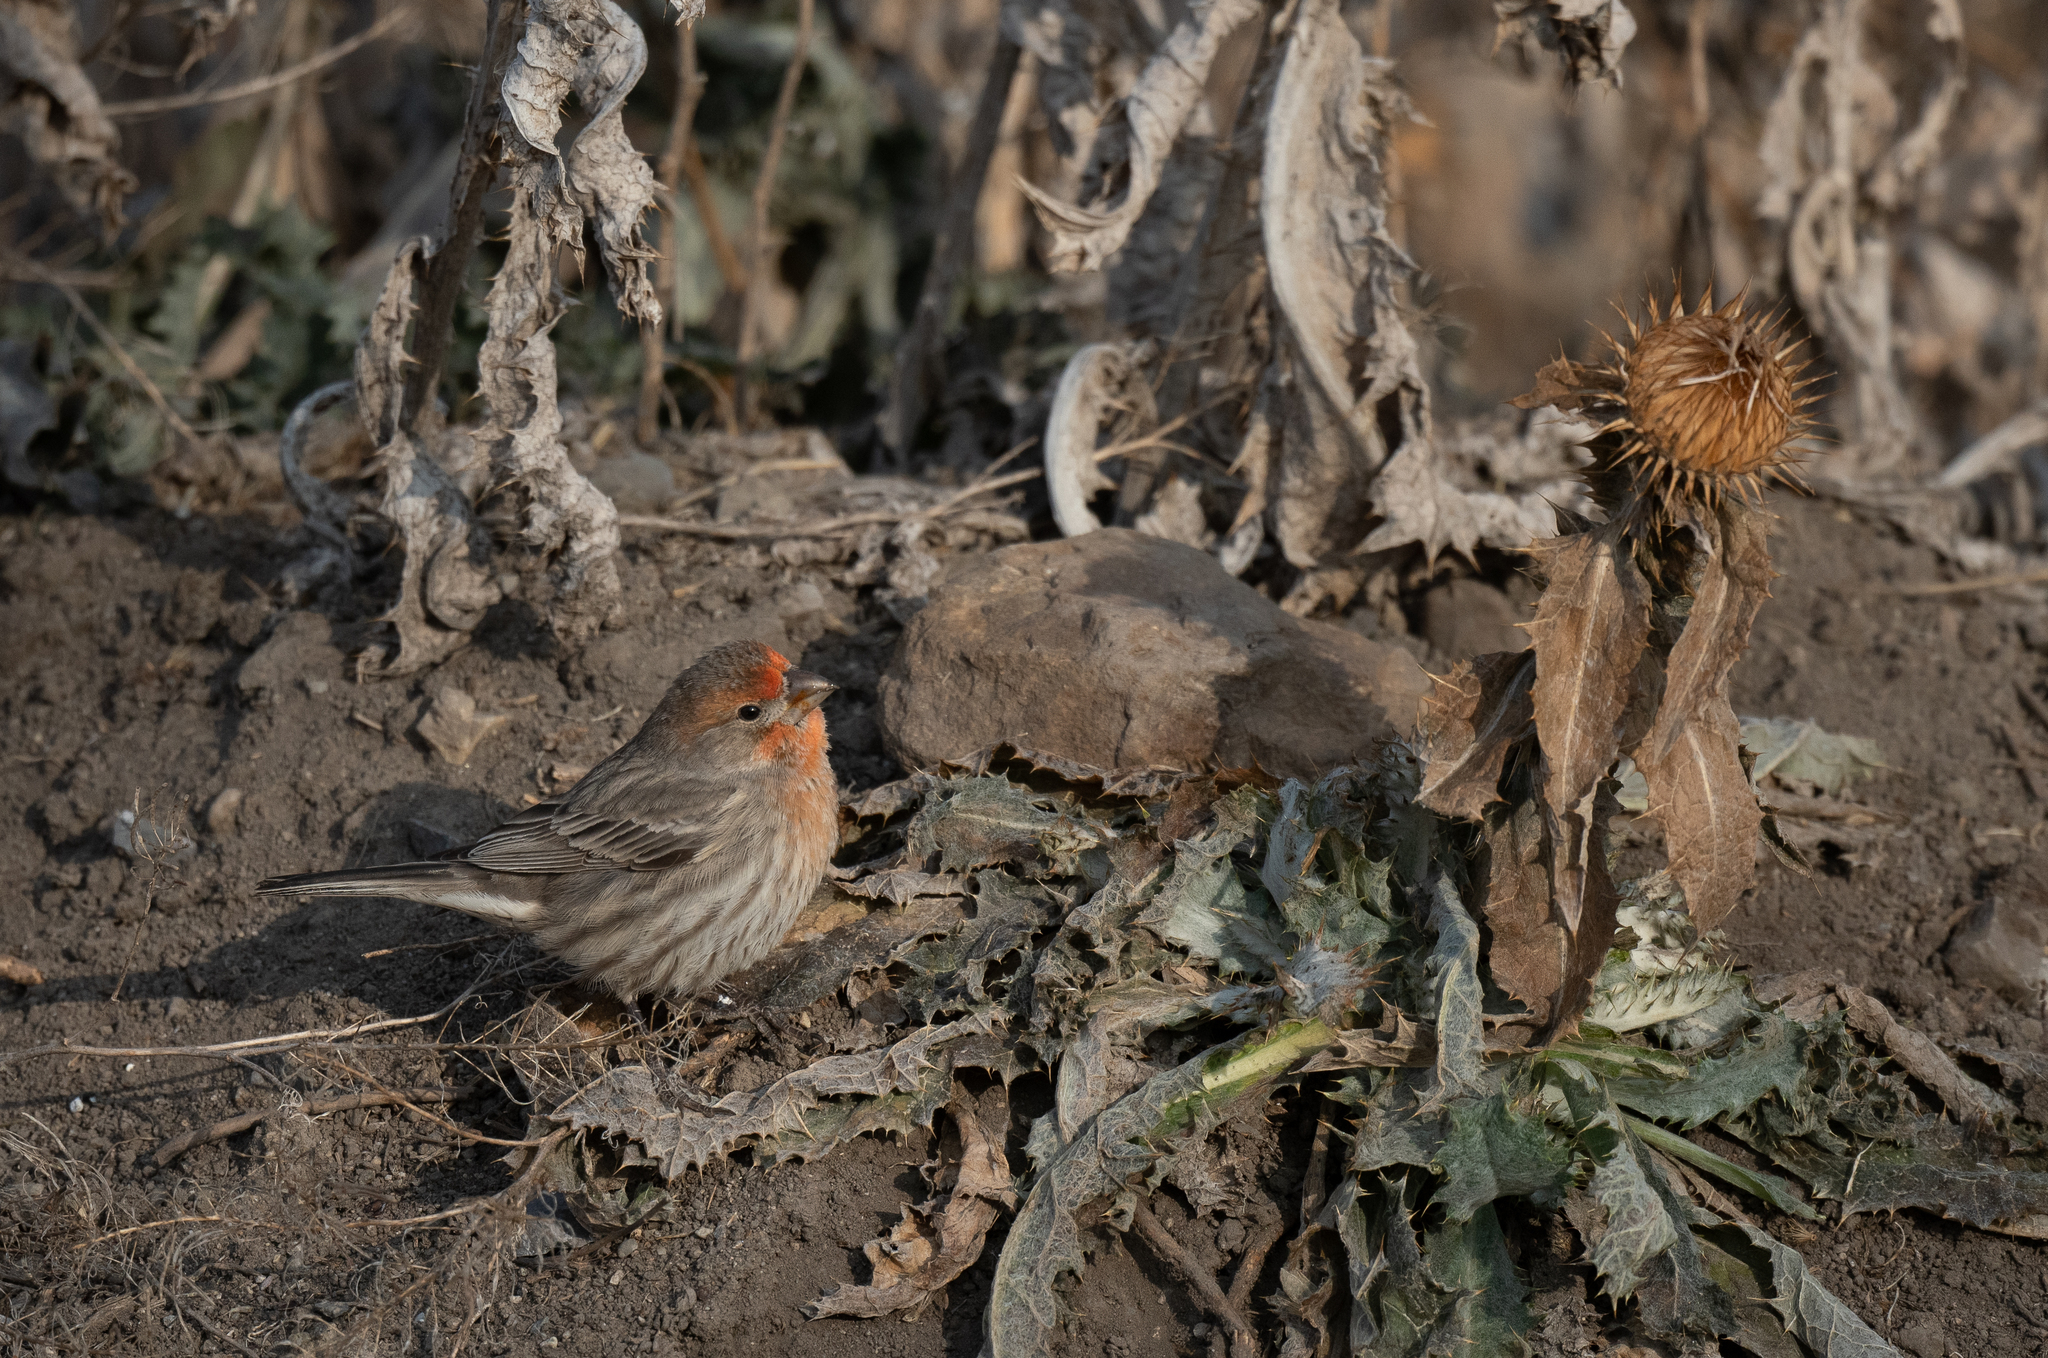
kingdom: Animalia
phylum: Chordata
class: Aves
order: Passeriformes
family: Fringillidae
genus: Haemorhous
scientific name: Haemorhous mexicanus
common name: House finch
